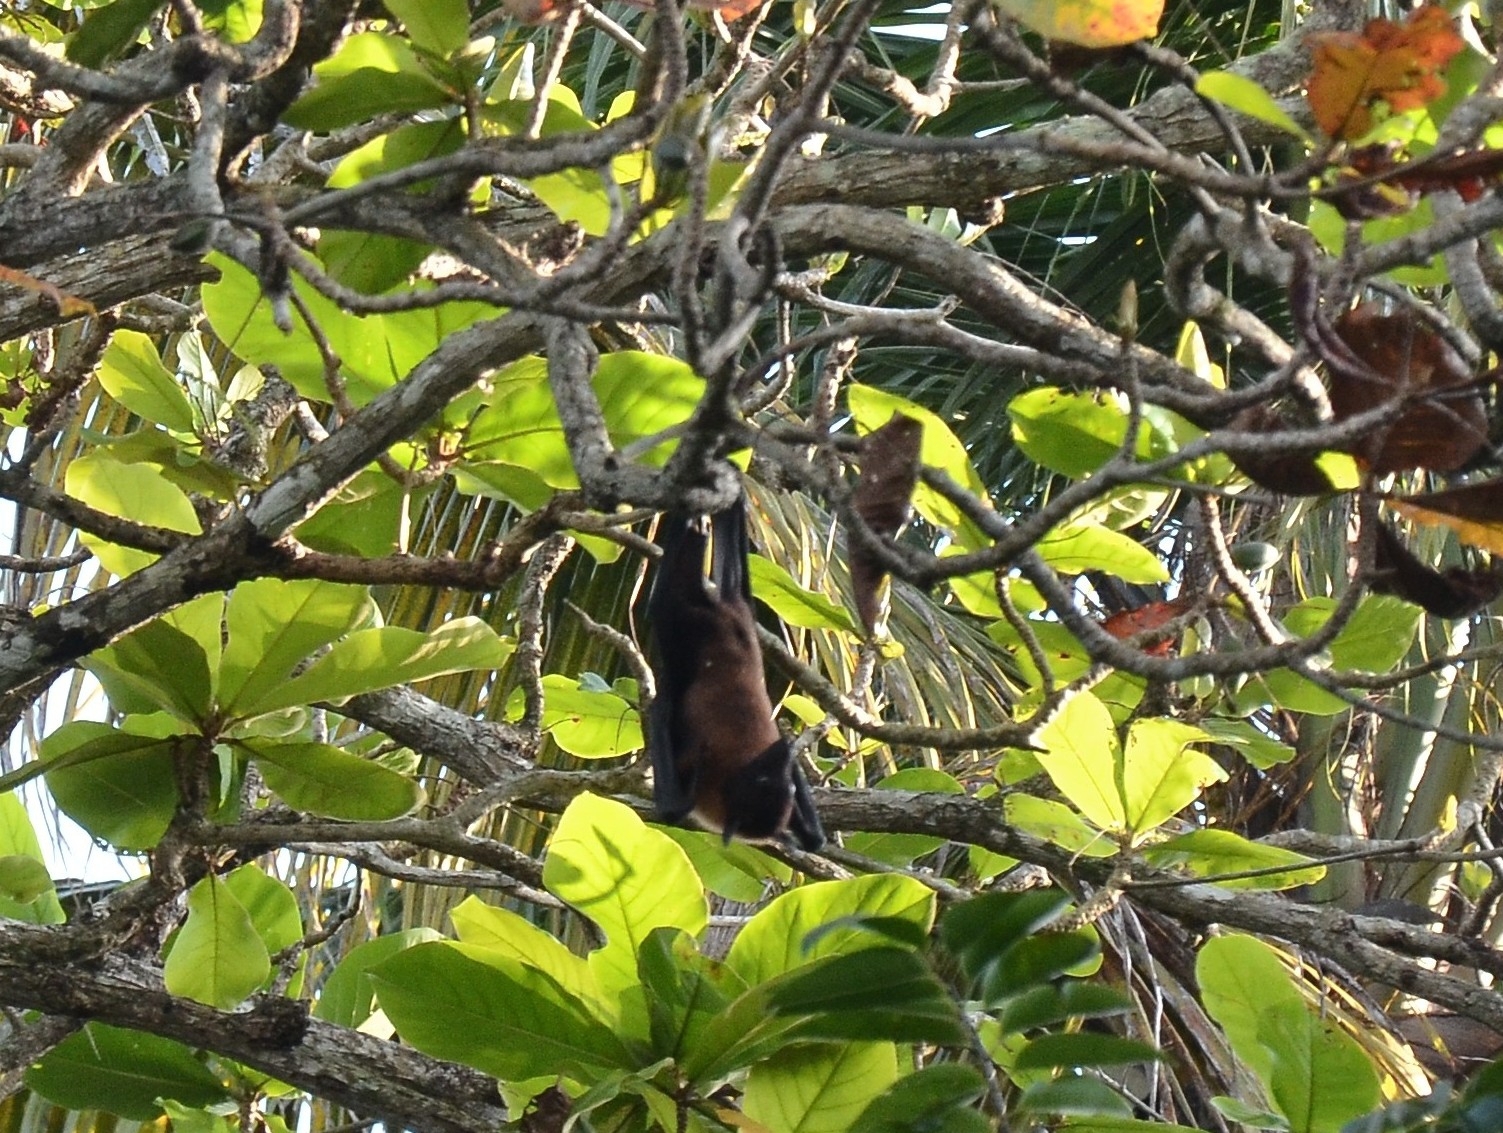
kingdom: Animalia
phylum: Chordata
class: Mammalia
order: Chiroptera
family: Pteropodidae
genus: Pteropus
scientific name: Pteropus vampyrus
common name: Large flying fox
